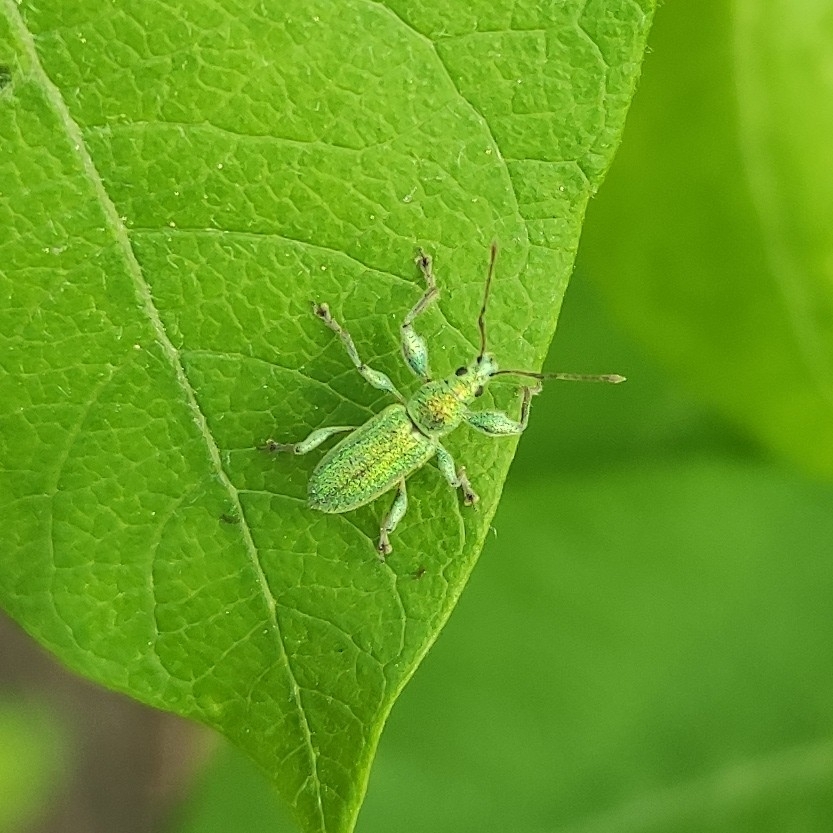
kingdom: Animalia
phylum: Arthropoda
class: Insecta
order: Coleoptera
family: Curculionidae
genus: Phyllobius
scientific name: Phyllobius arborator
